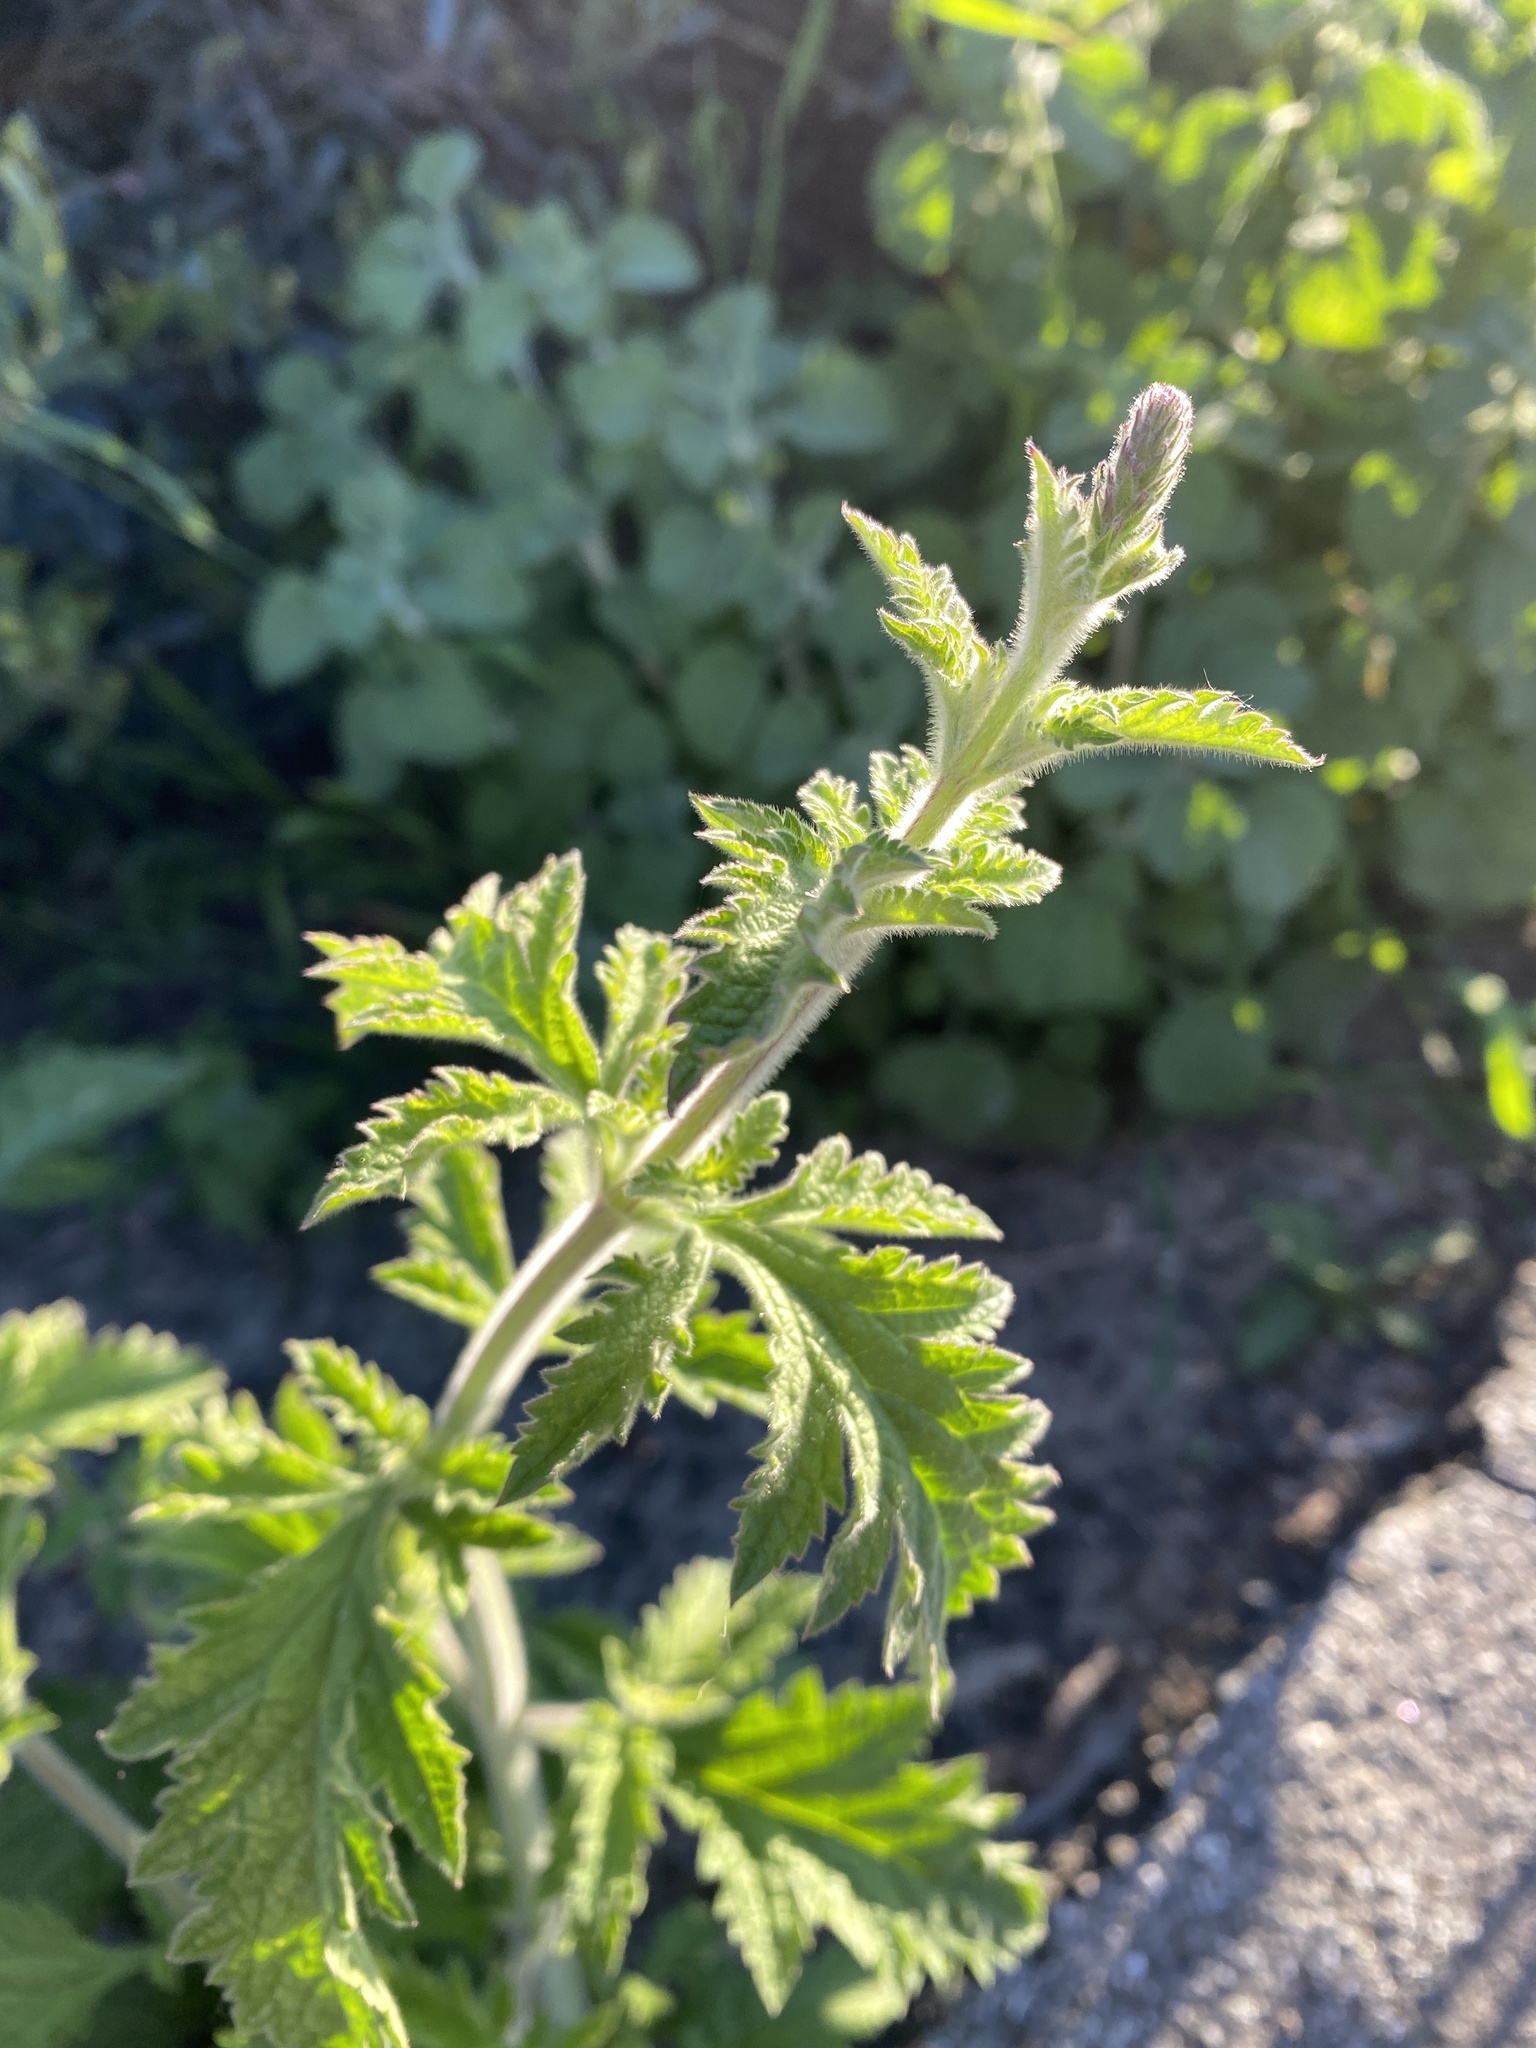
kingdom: Plantae
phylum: Tracheophyta
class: Magnoliopsida
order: Lamiales
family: Verbenaceae
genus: Verbena
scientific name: Verbena lasiostachys
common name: Vervain
